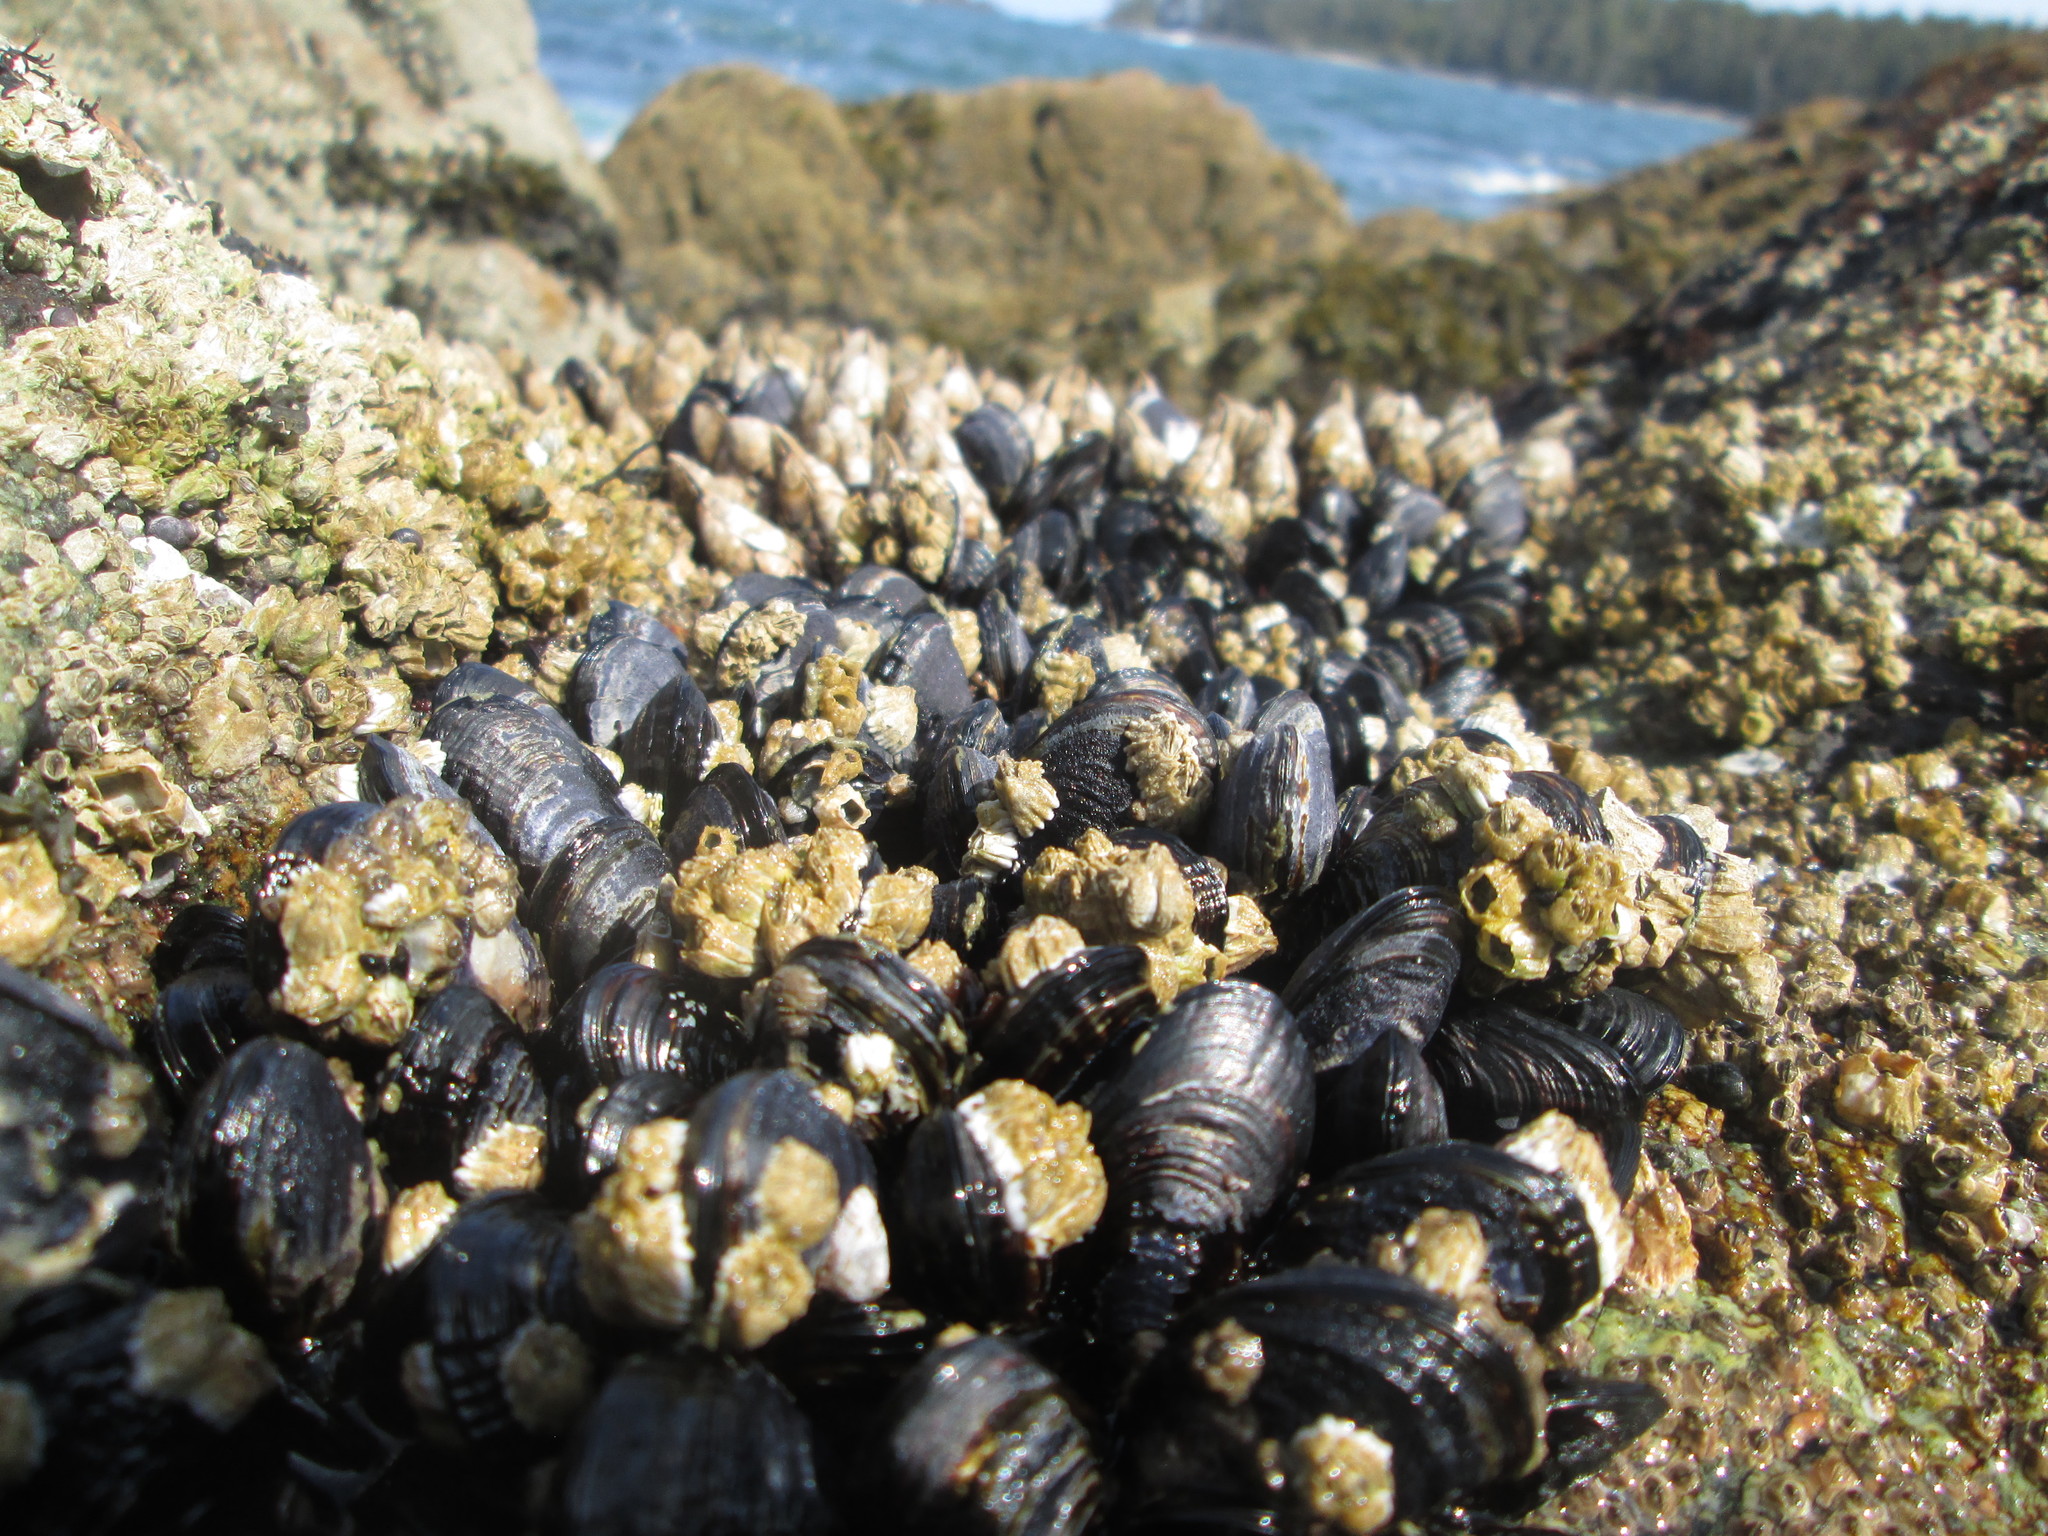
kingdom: Animalia
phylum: Mollusca
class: Bivalvia
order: Mytilida
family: Mytilidae
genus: Mytilus
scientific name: Mytilus californianus
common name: California mussel
